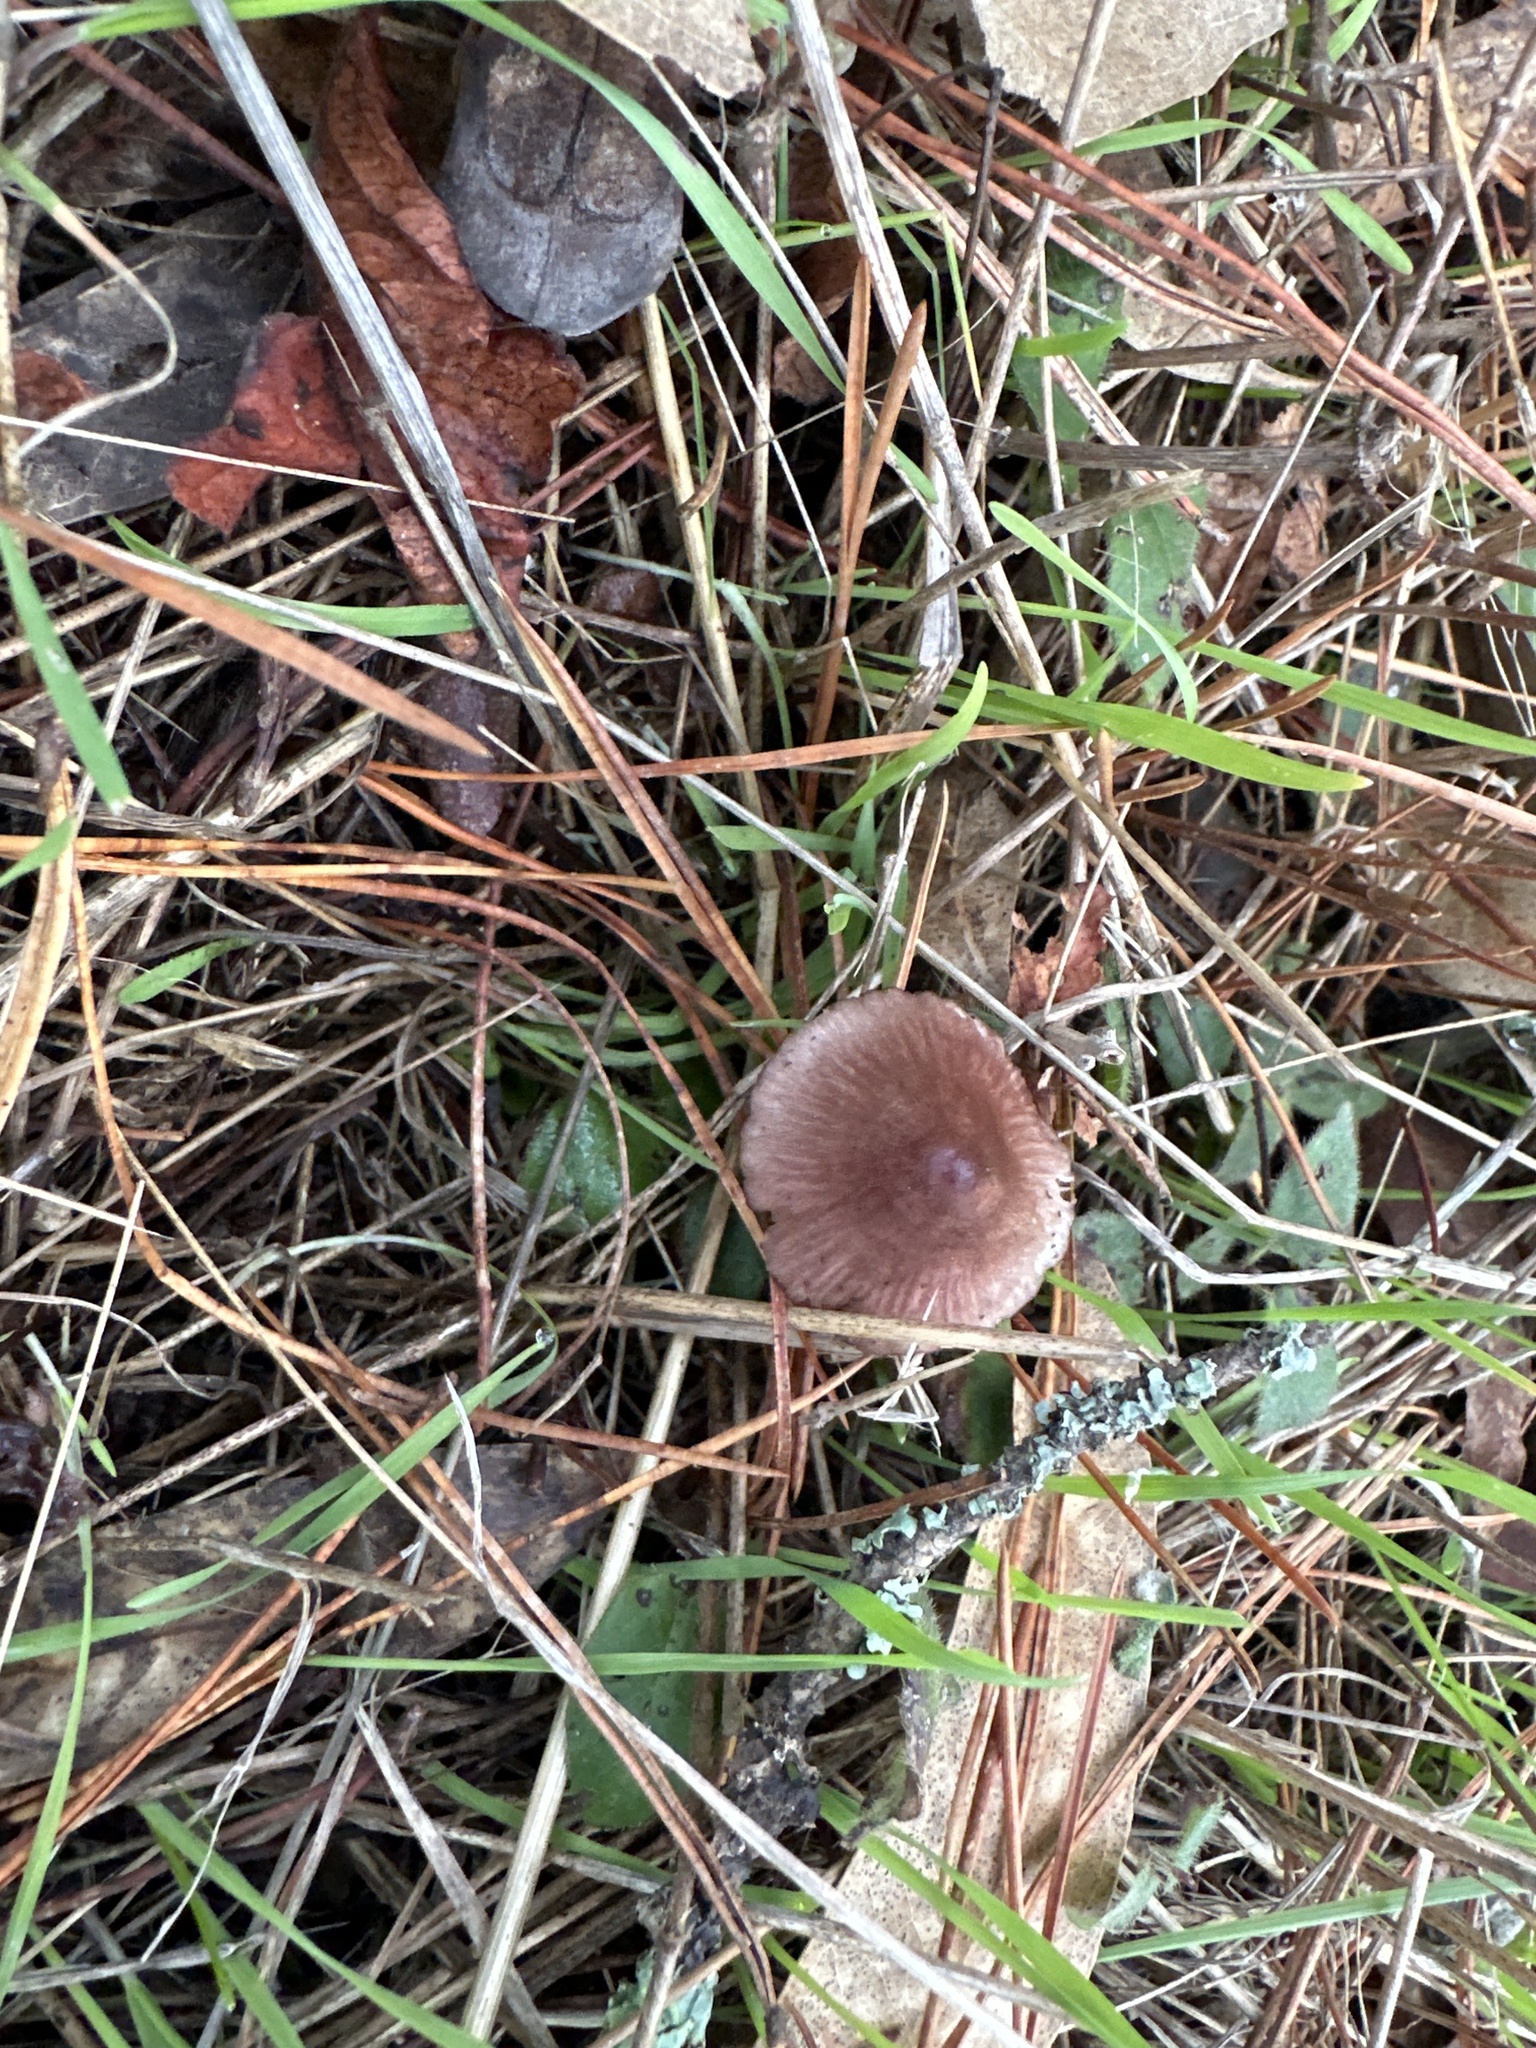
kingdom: Fungi
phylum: Basidiomycota
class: Agaricomycetes
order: Agaricales
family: Mycenaceae
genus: Mycena
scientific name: Mycena purpureofusca
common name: Purple edge bonnet
